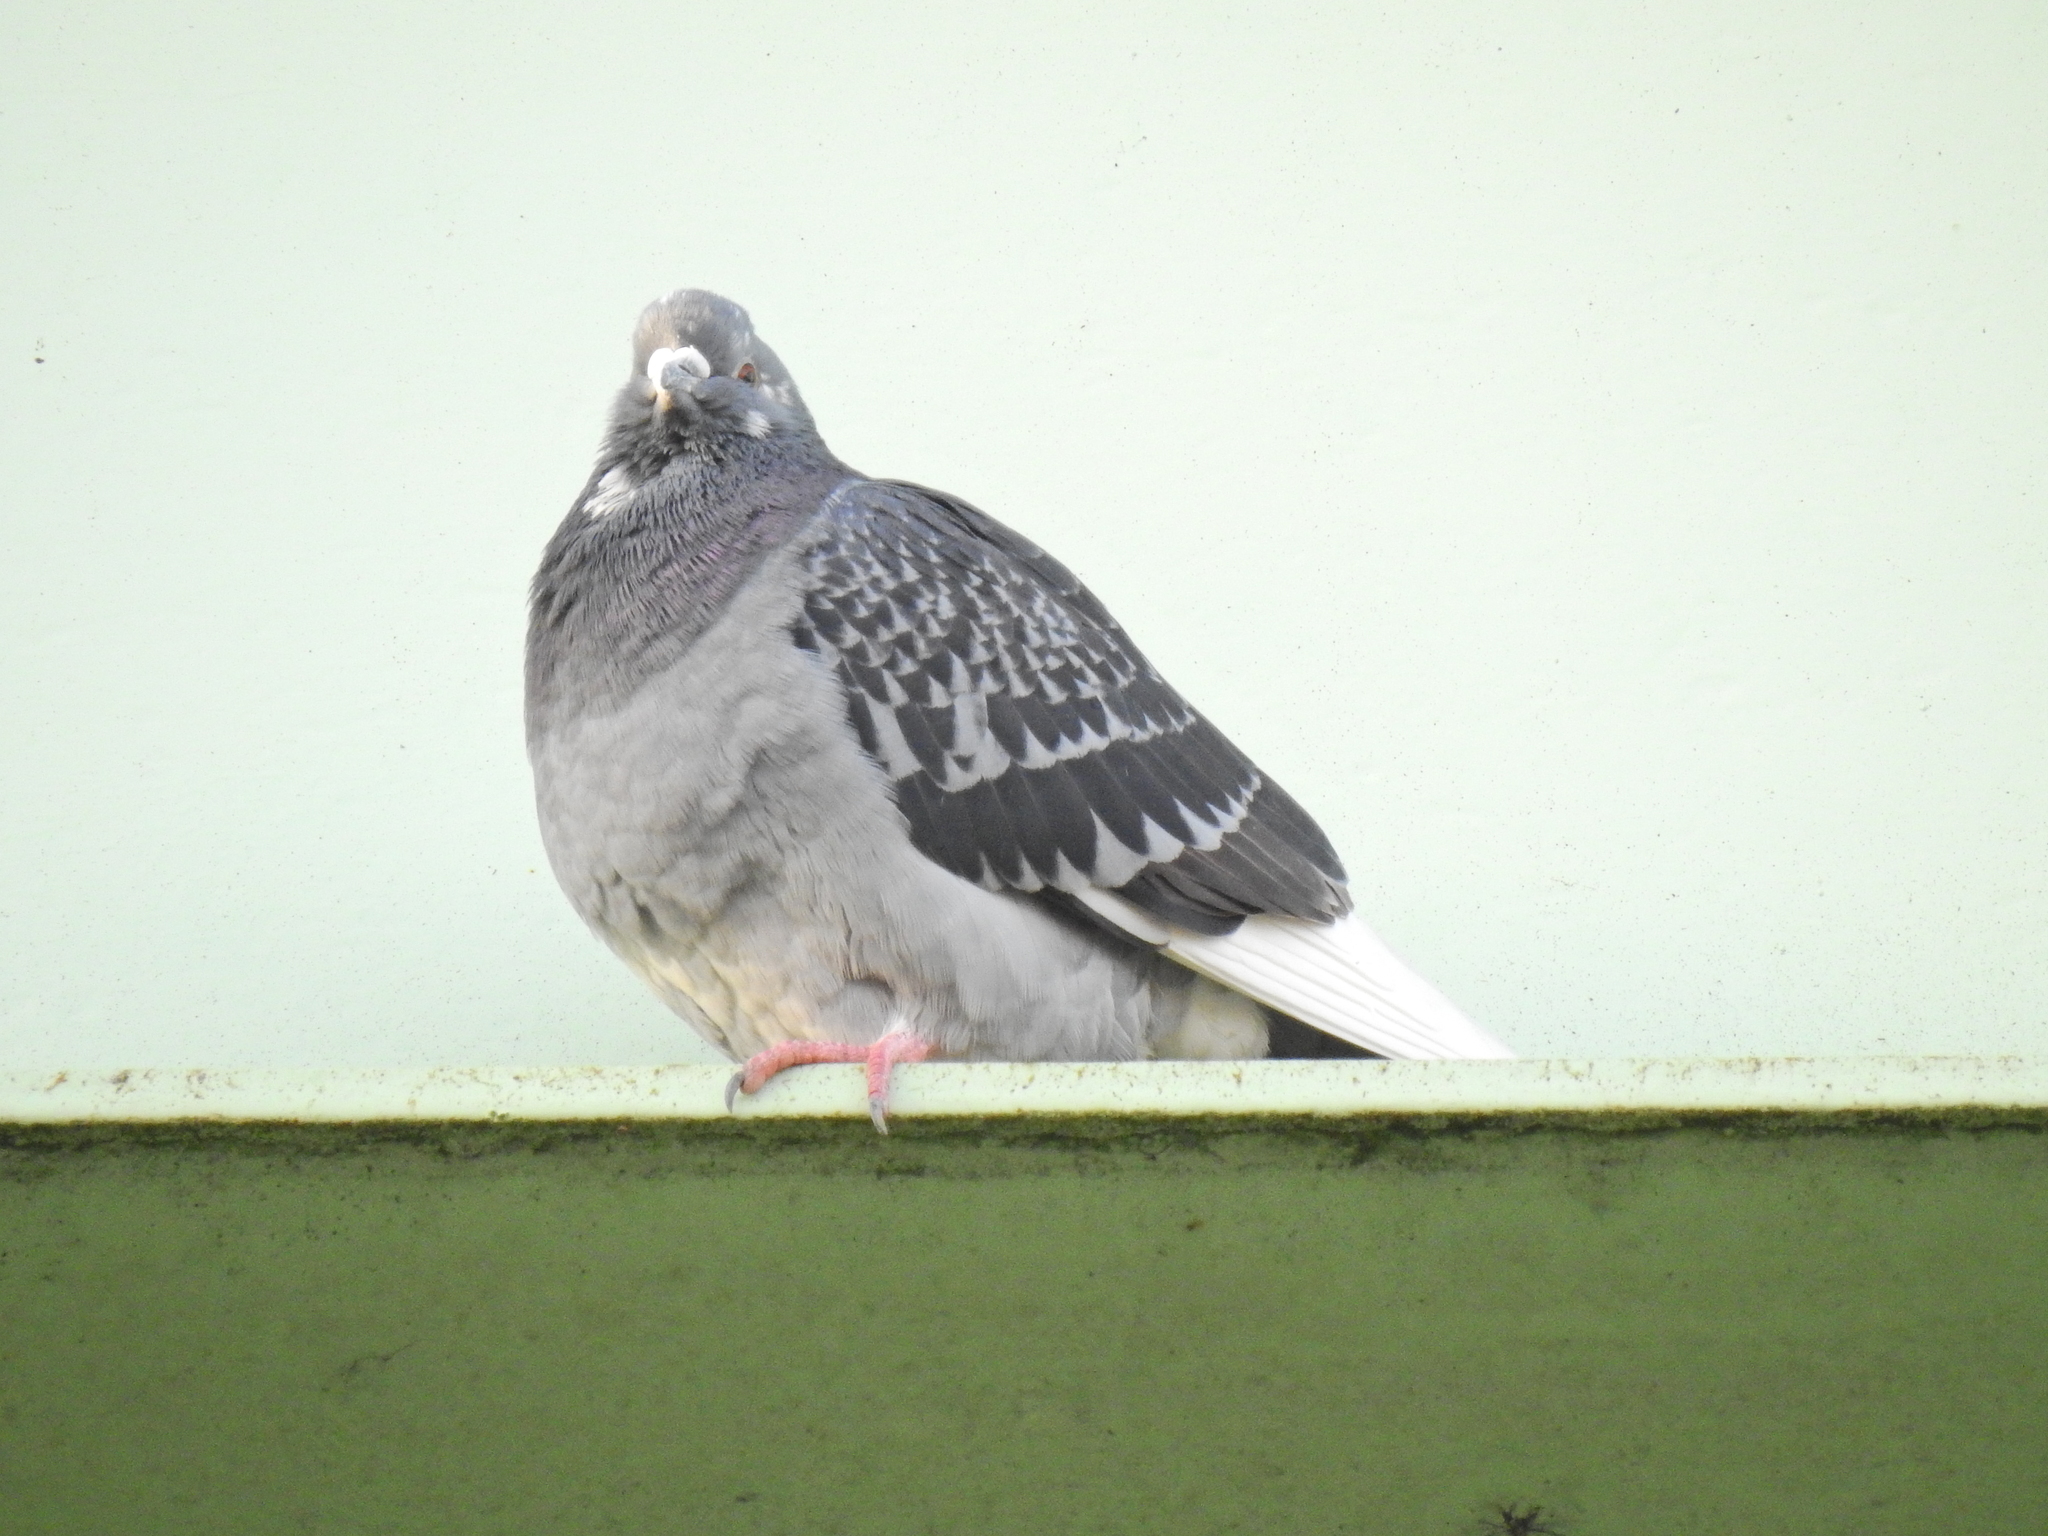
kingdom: Animalia
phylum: Chordata
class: Aves
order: Columbiformes
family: Columbidae
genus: Columba
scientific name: Columba livia
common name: Rock pigeon
